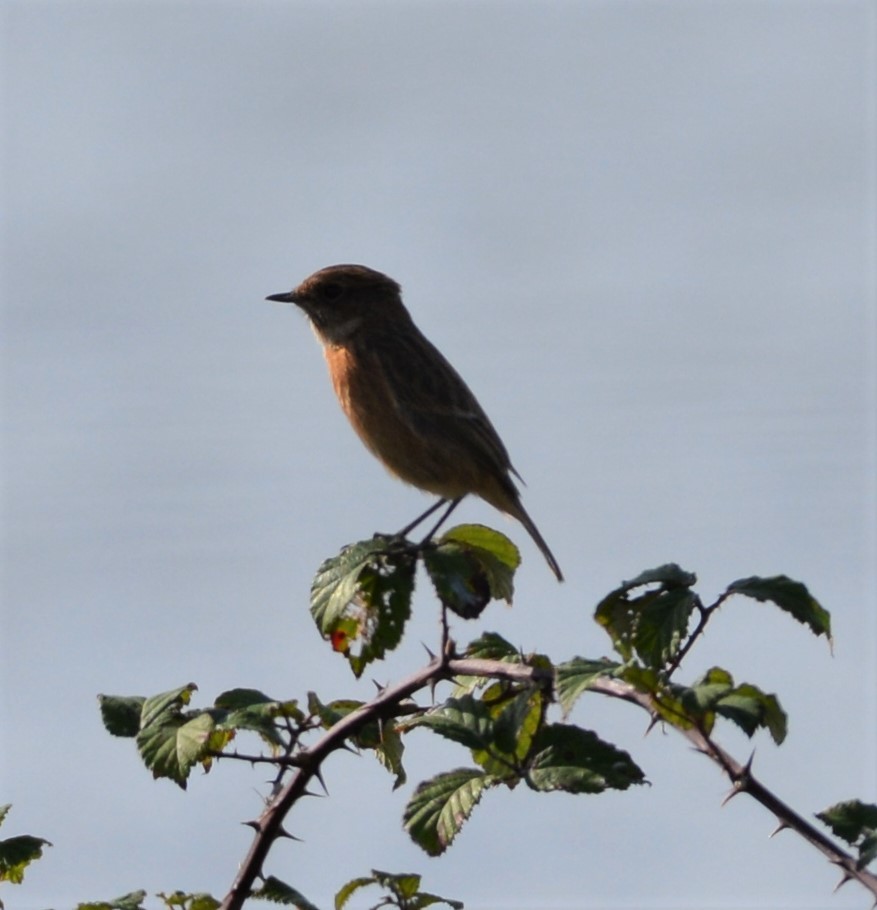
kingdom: Animalia
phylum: Chordata
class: Aves
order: Passeriformes
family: Muscicapidae
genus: Saxicola
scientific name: Saxicola rubicola
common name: European stonechat
